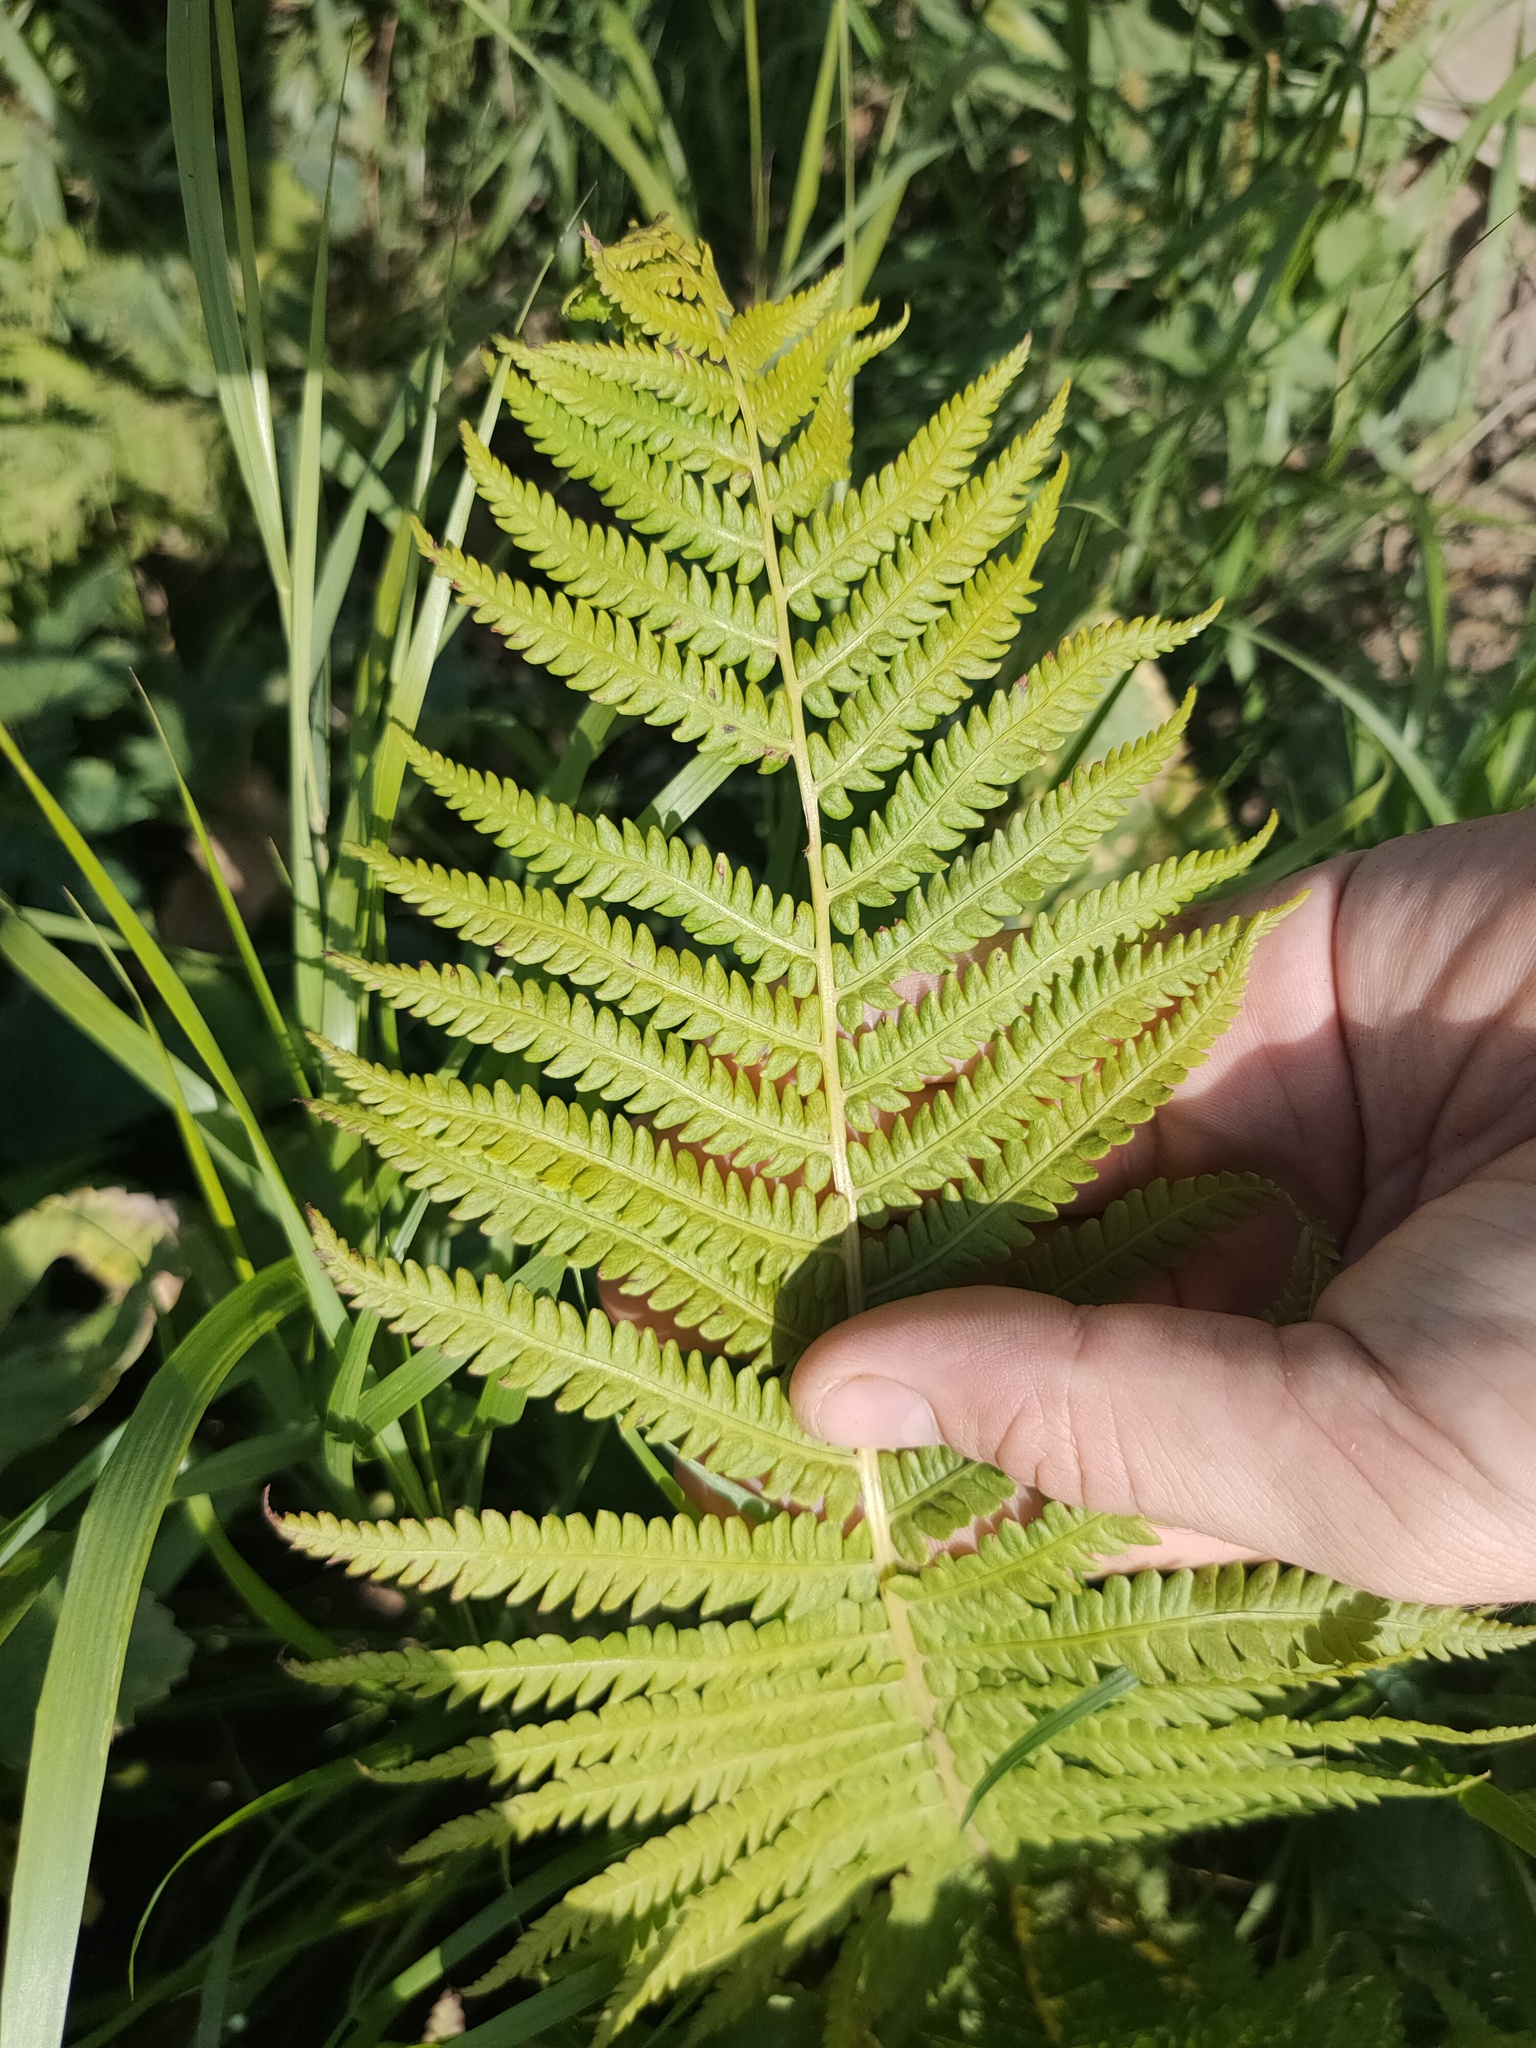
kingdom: Plantae
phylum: Tracheophyta
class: Polypodiopsida
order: Polypodiales
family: Onocleaceae
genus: Matteuccia
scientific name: Matteuccia struthiopteris
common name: Ostrich fern
